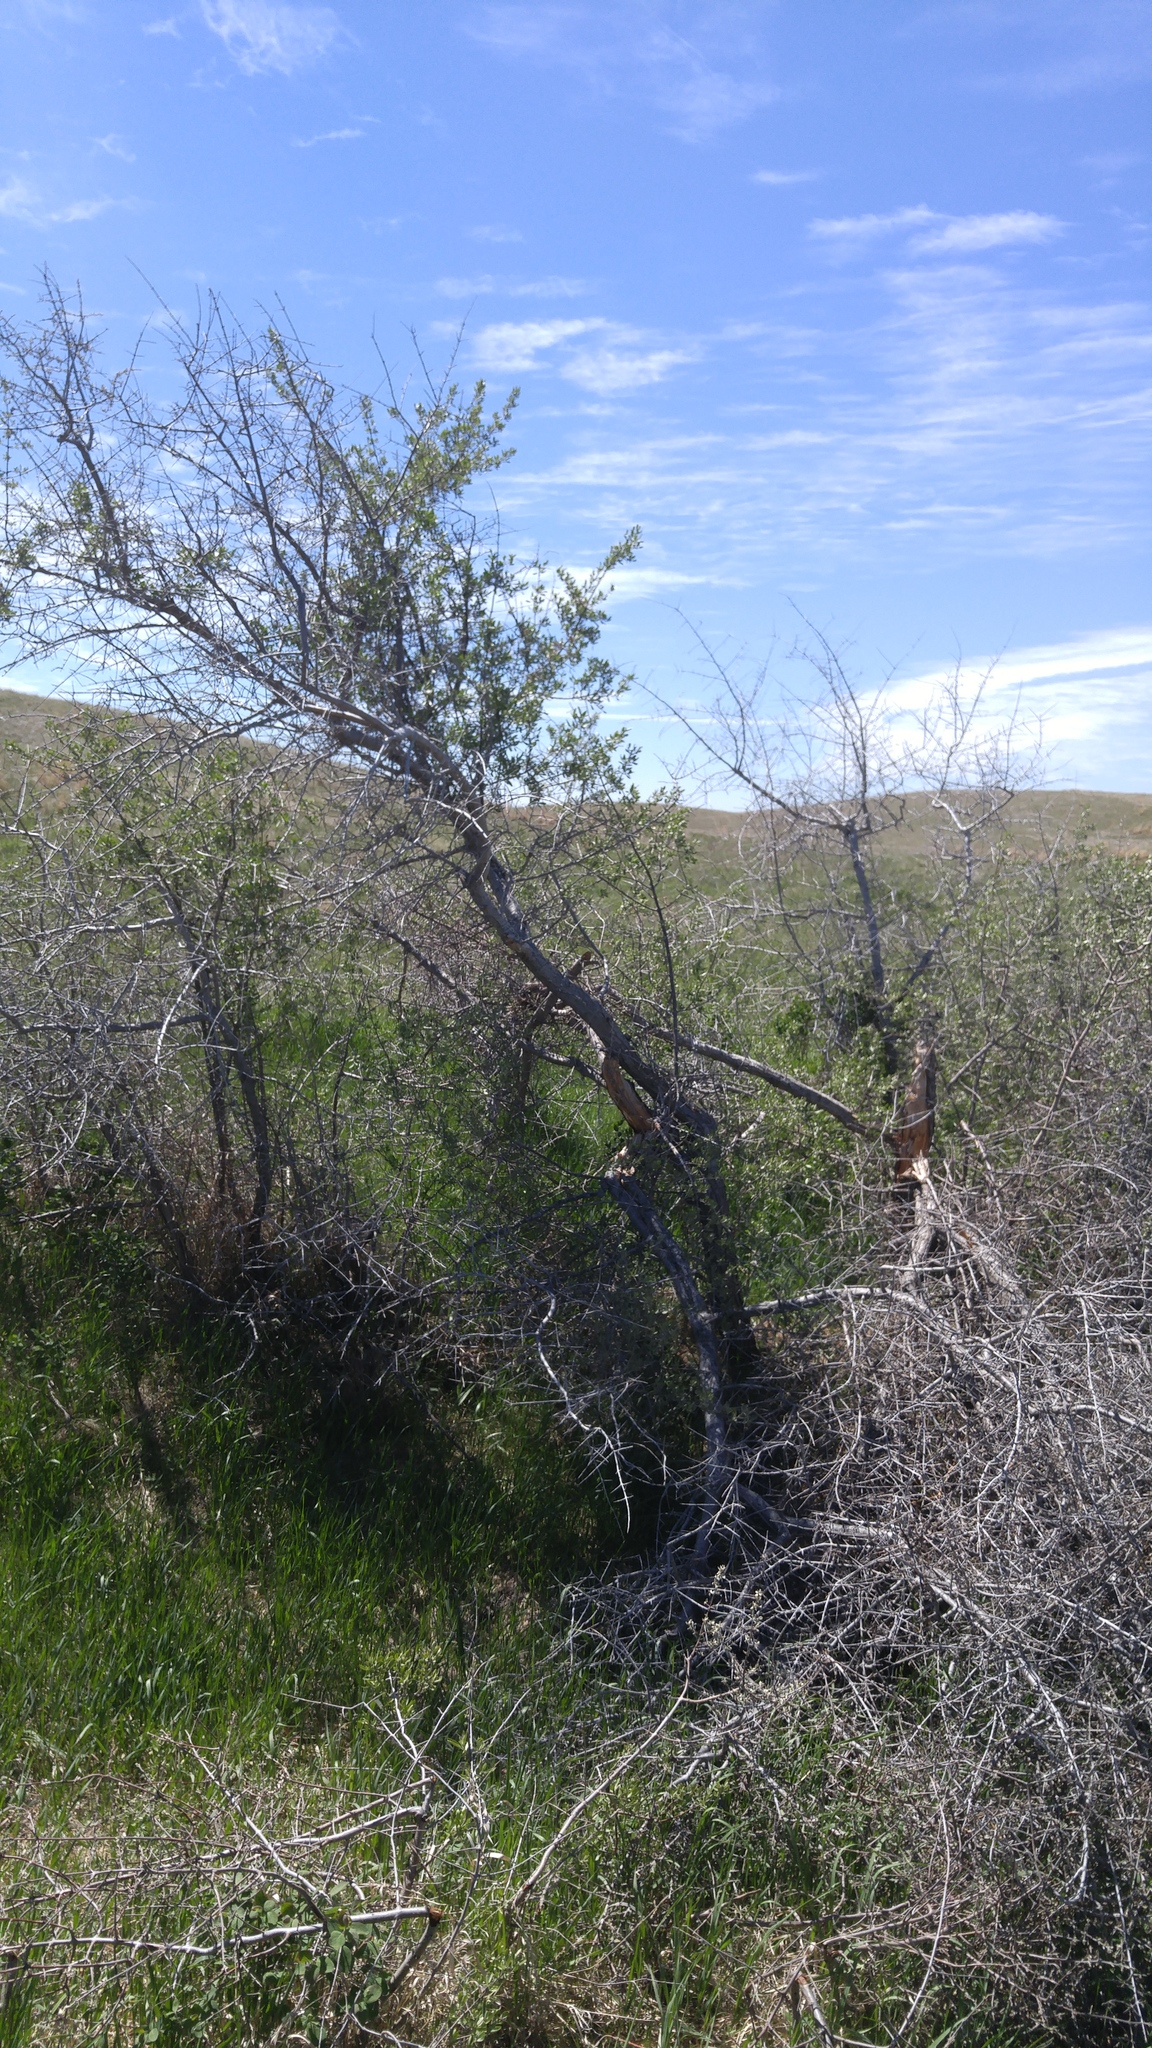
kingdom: Plantae
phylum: Tracheophyta
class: Magnoliopsida
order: Rosales
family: Elaeagnaceae
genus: Elaeagnus
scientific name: Elaeagnus angustifolia
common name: Russian olive
